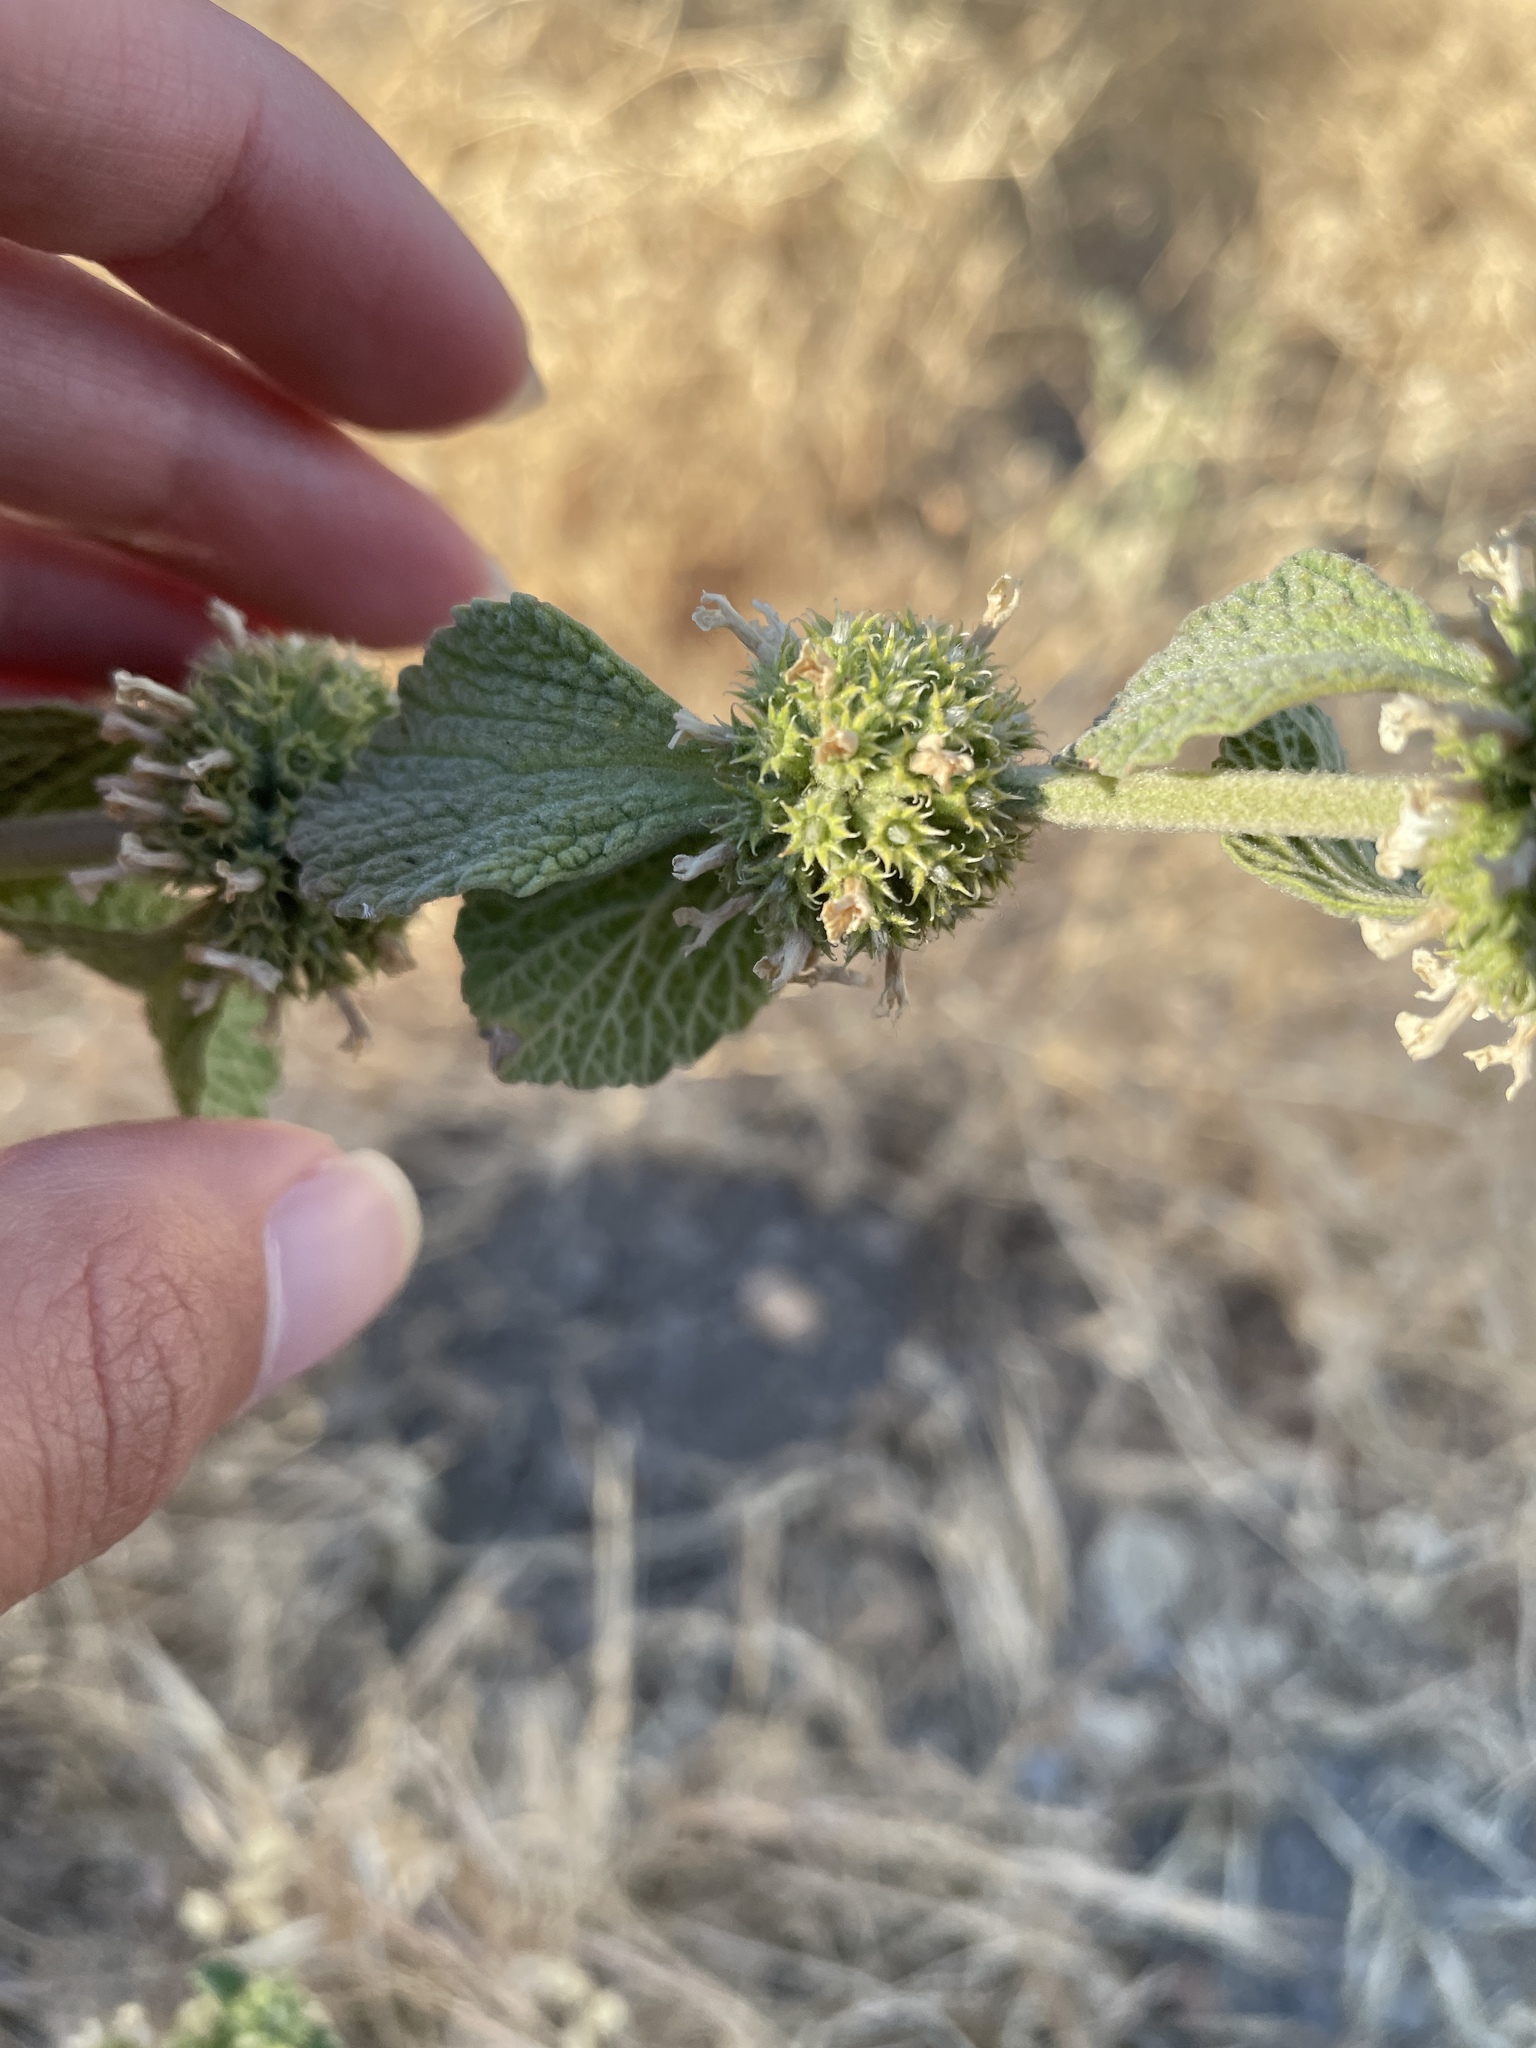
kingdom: Plantae
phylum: Tracheophyta
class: Magnoliopsida
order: Lamiales
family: Lamiaceae
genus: Marrubium
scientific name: Marrubium vulgare
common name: Horehound
